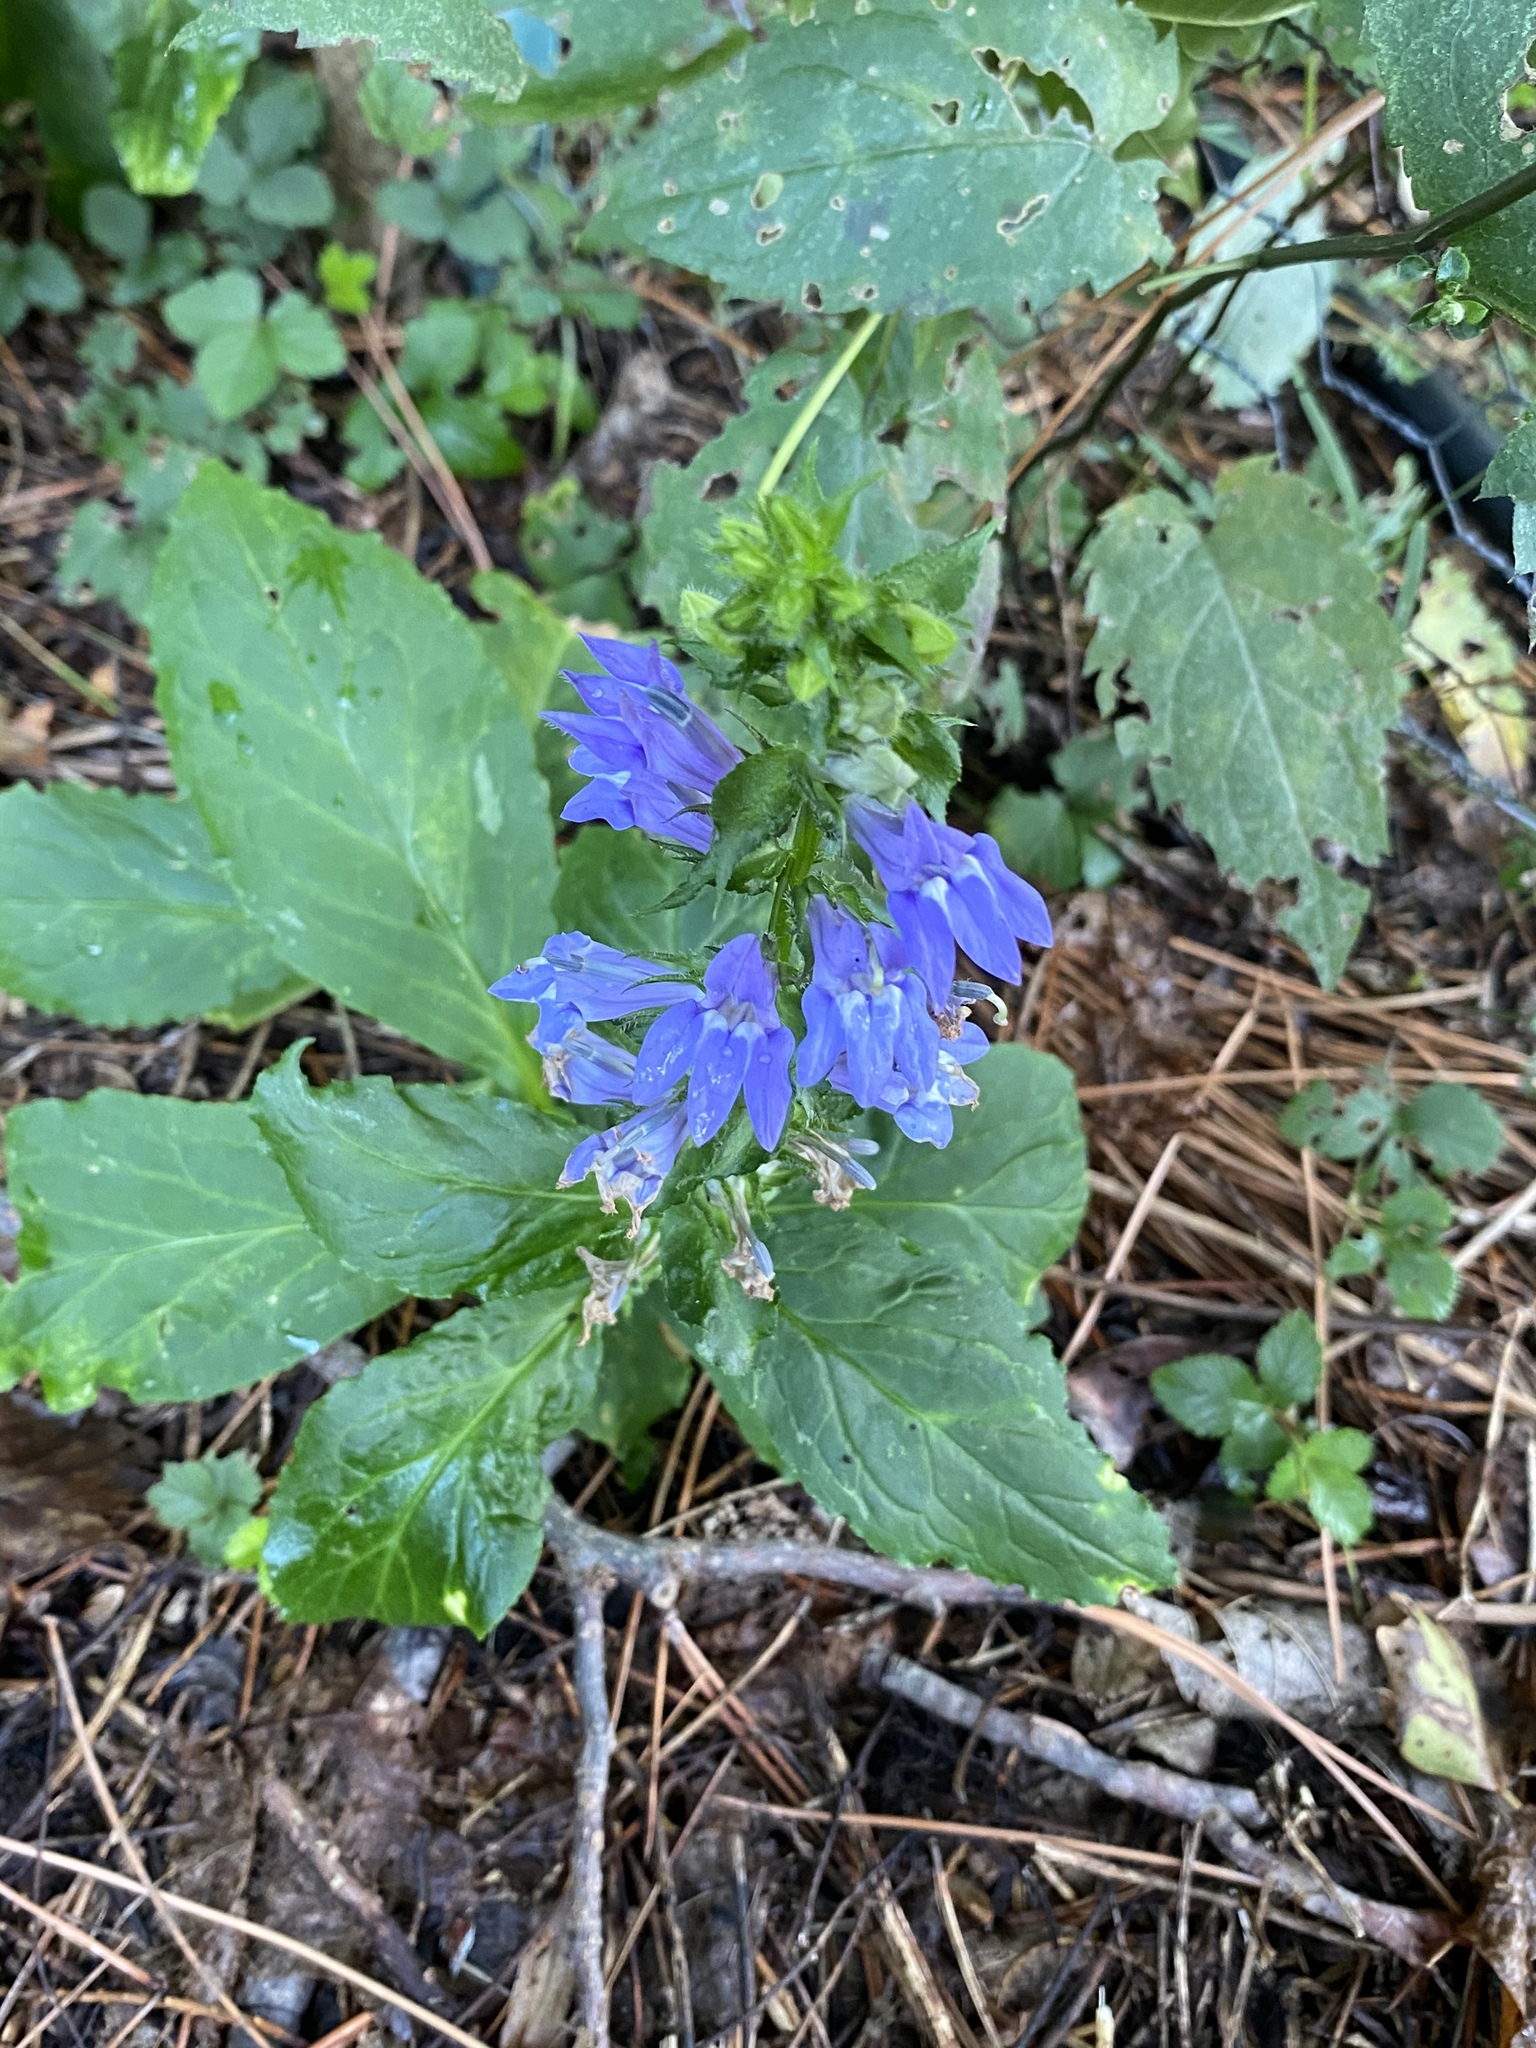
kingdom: Plantae
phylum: Tracheophyta
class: Magnoliopsida
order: Asterales
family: Campanulaceae
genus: Lobelia
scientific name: Lobelia siphilitica
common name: Great lobelia
